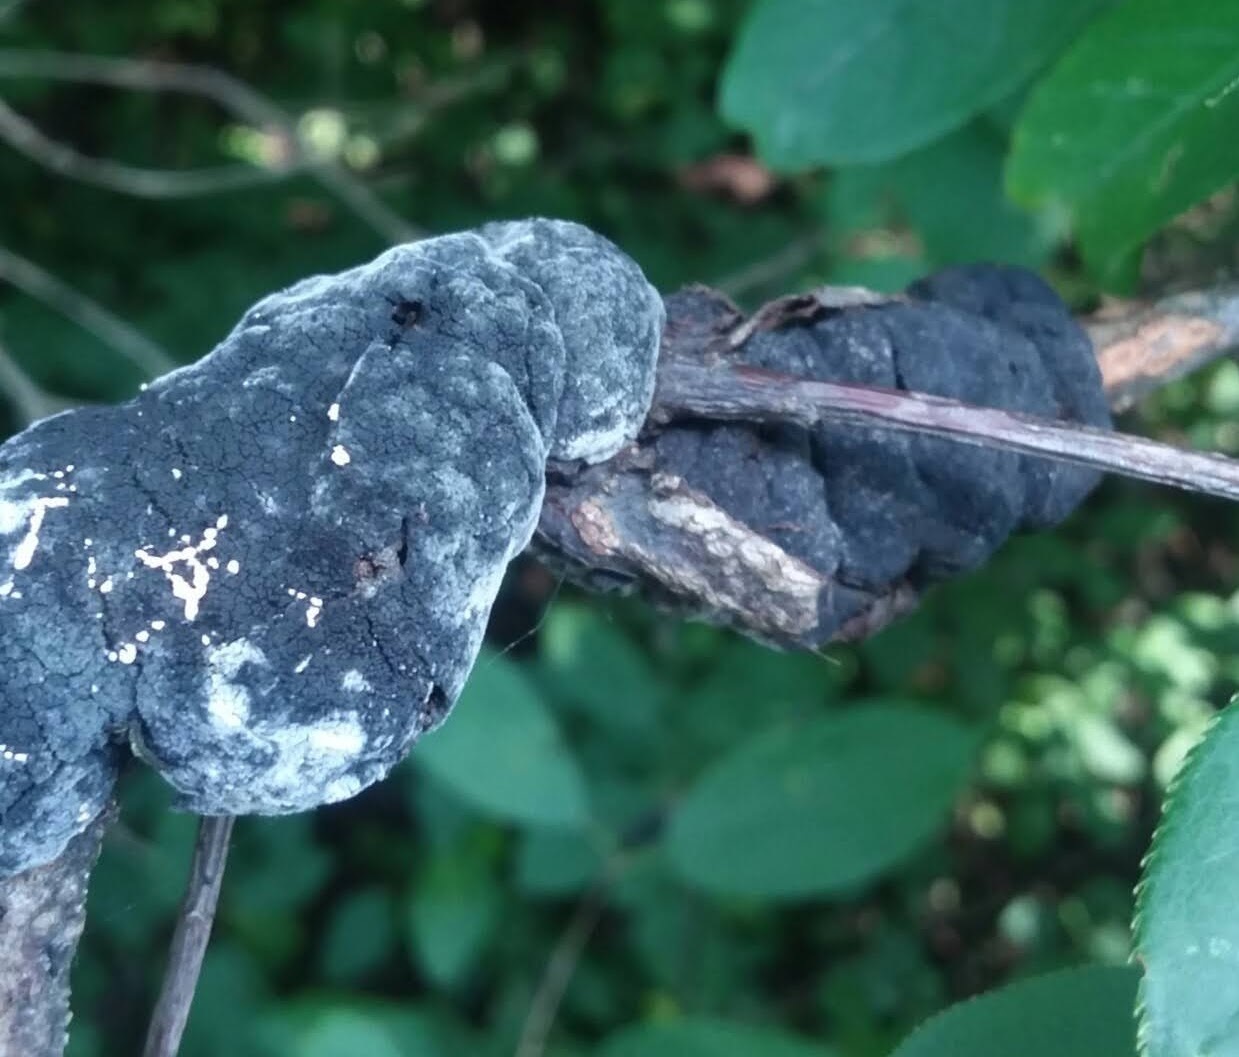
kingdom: Fungi
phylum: Ascomycota
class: Dothideomycetes
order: Venturiales
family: Venturiaceae
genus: Apiosporina
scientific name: Apiosporina morbosa
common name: Black knot
